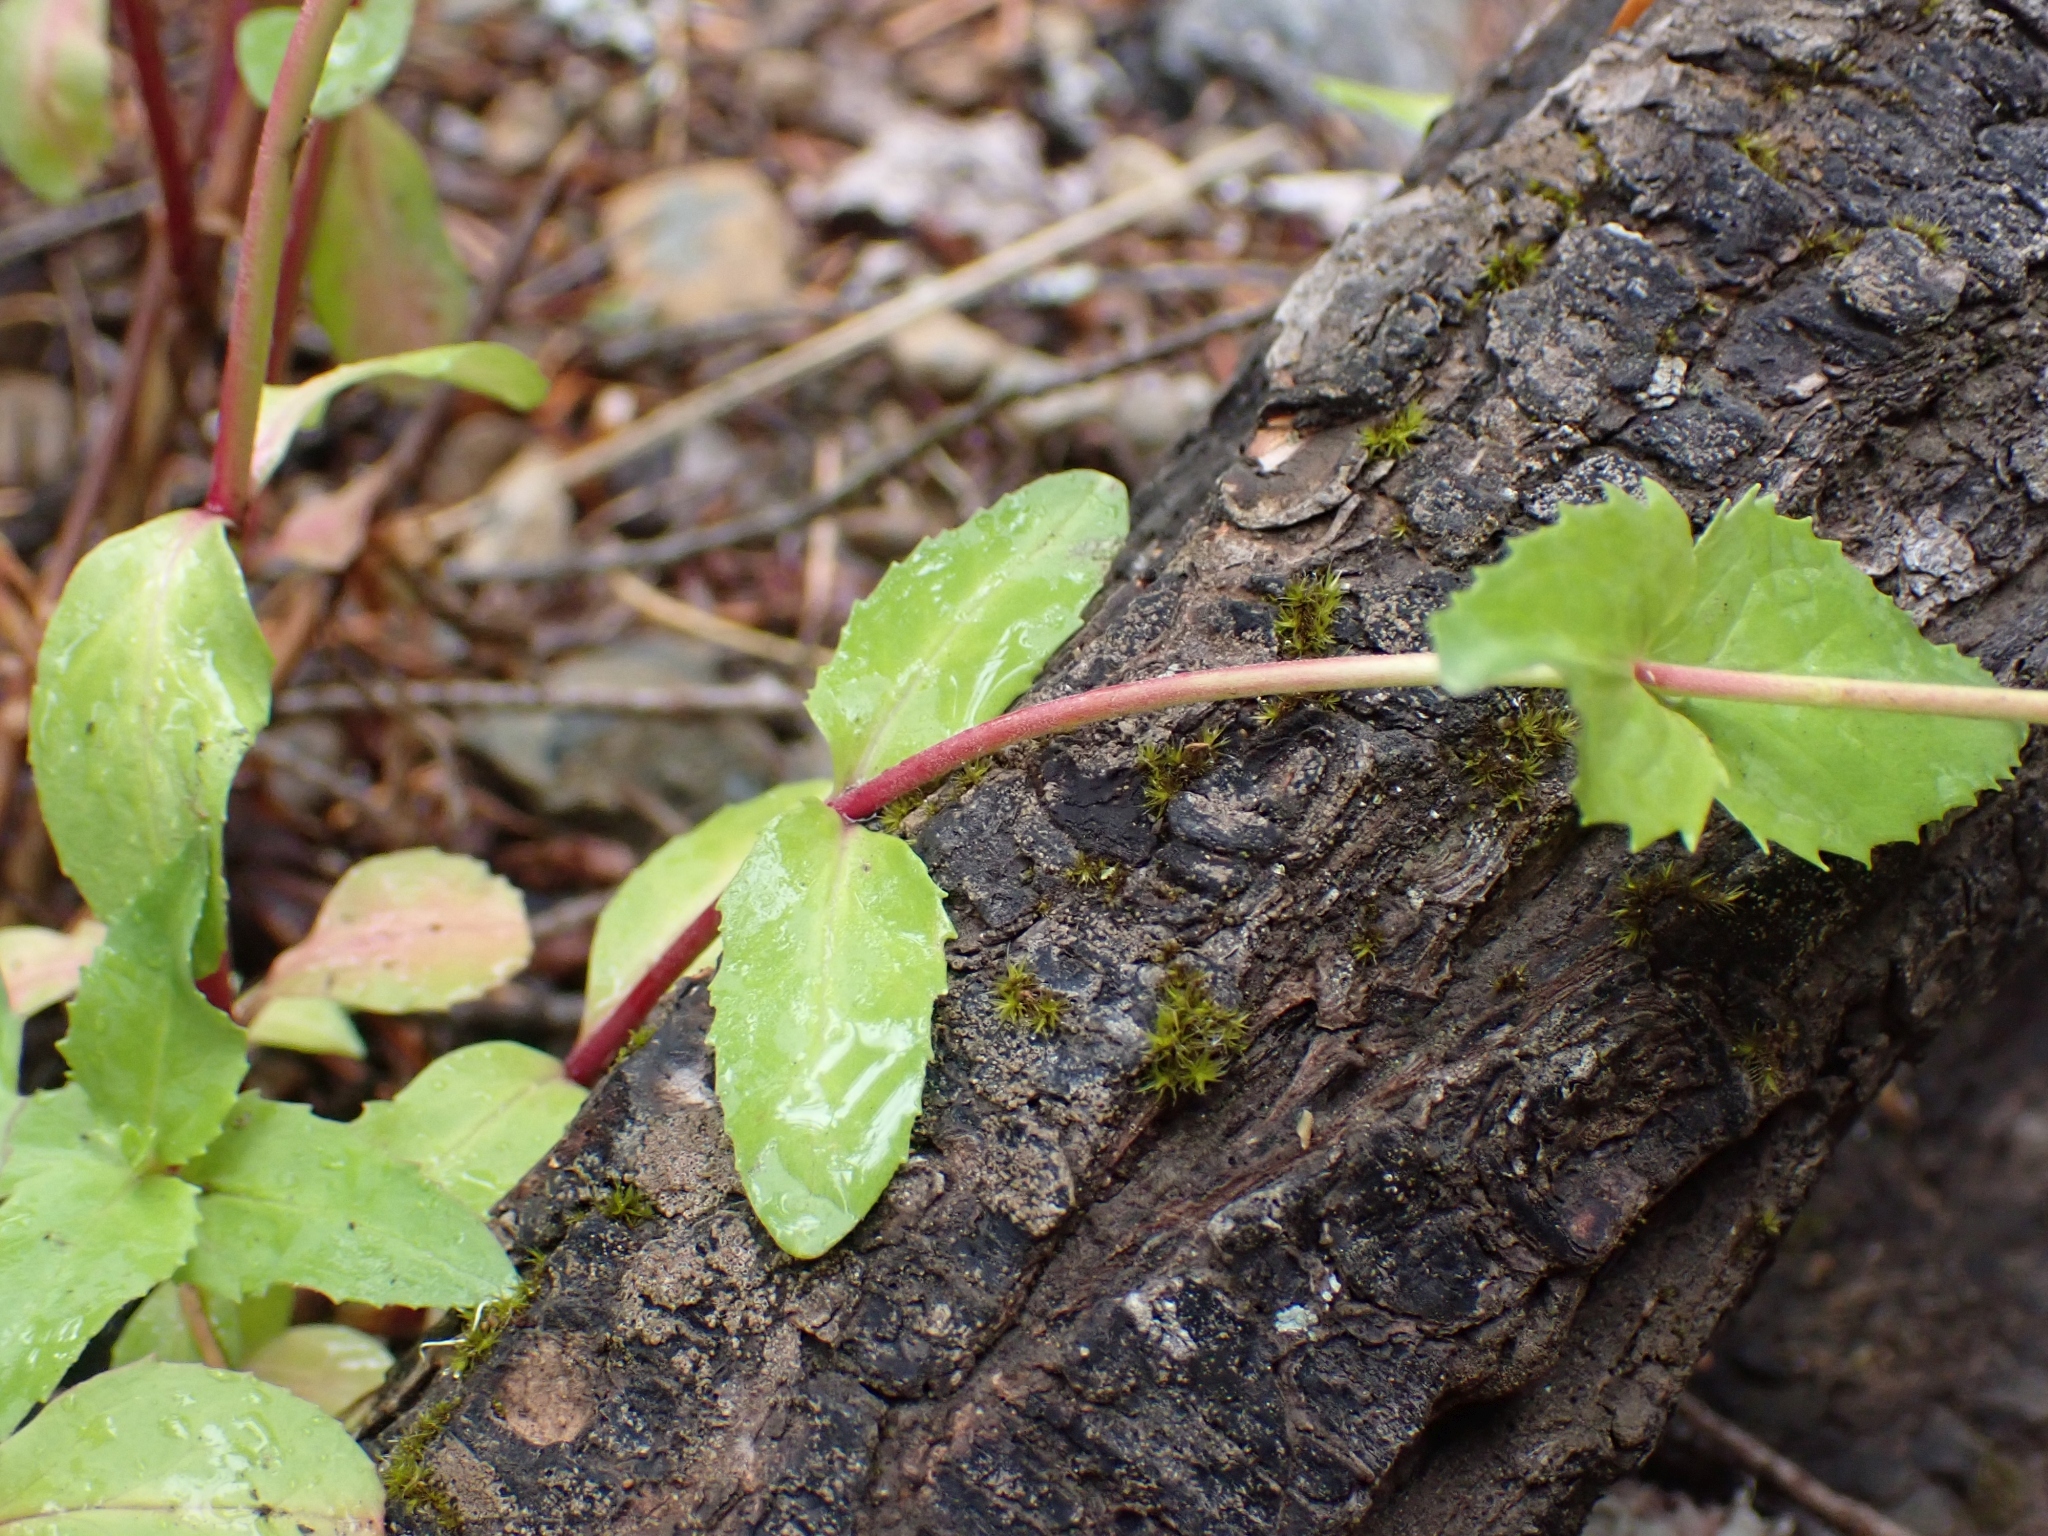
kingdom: Plantae
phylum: Tracheophyta
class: Magnoliopsida
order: Lamiales
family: Plantaginaceae
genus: Penstemon
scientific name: Penstemon serrulatus
